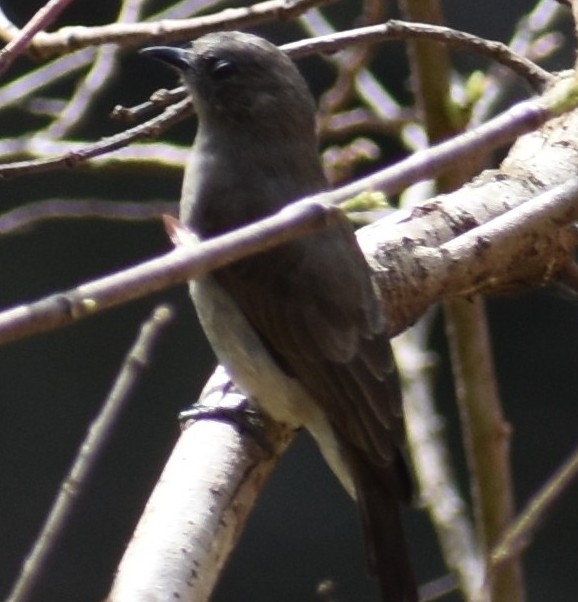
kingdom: Animalia
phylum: Chordata
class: Aves
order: Piciformes
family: Indicatoridae
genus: Prodotiscus
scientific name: Prodotiscus regulus
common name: Brown-backed honeybird
